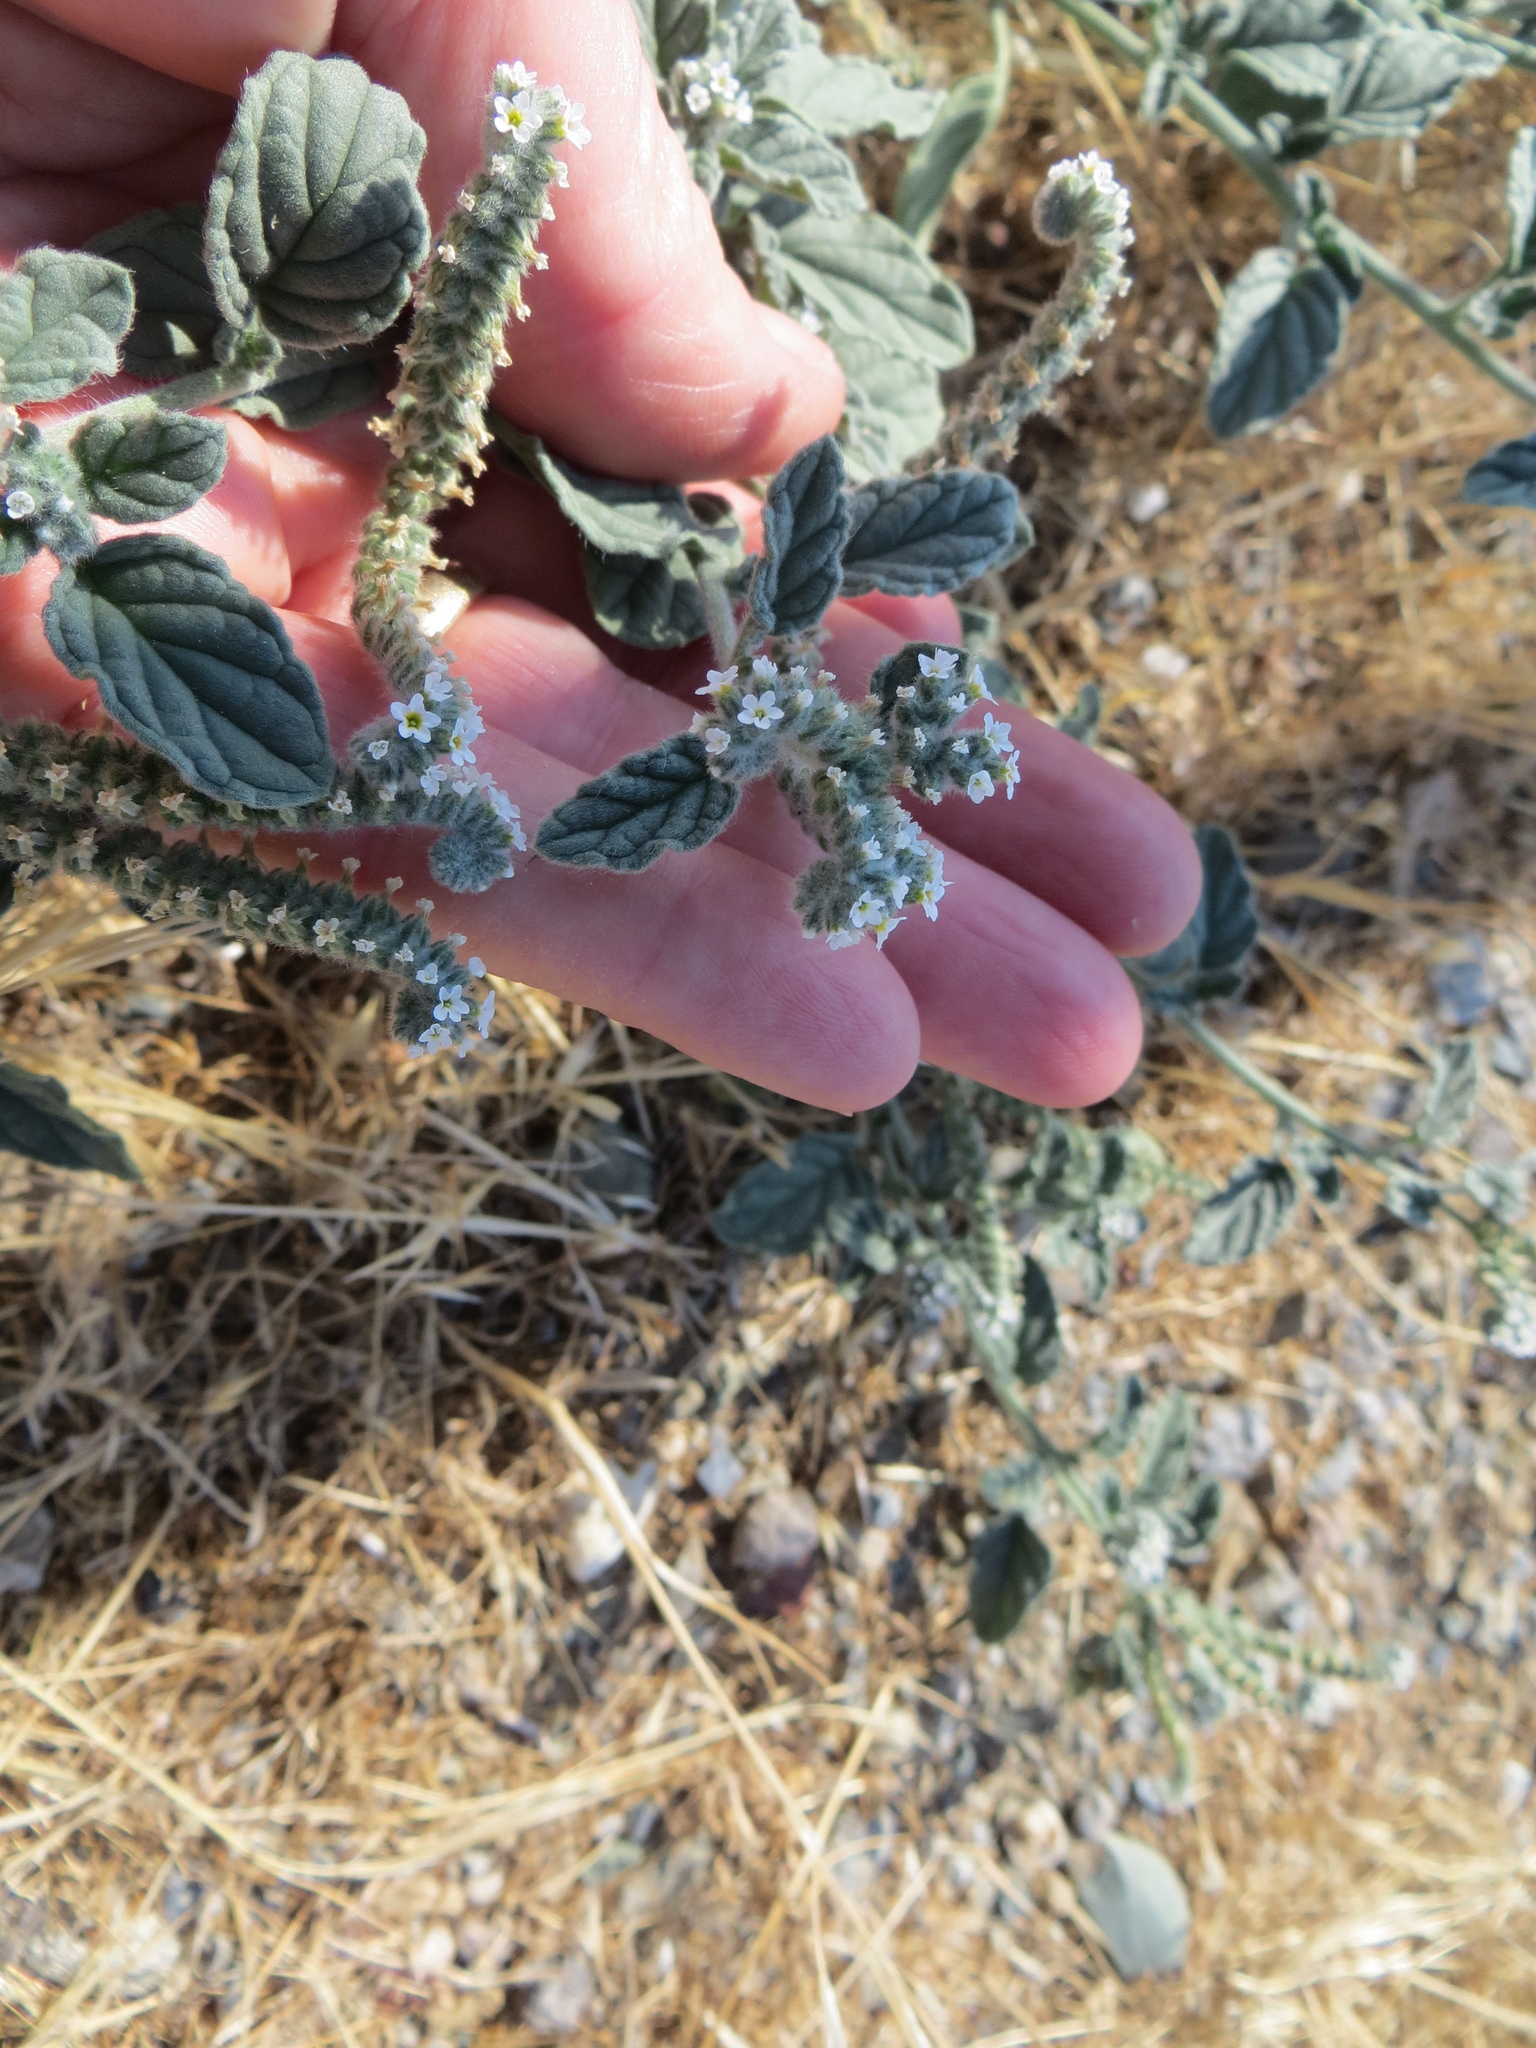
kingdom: Plantae
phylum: Tracheophyta
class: Magnoliopsida
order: Boraginales
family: Heliotropiaceae
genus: Heliotropium
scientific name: Heliotropium europaeum
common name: European heliotrope
